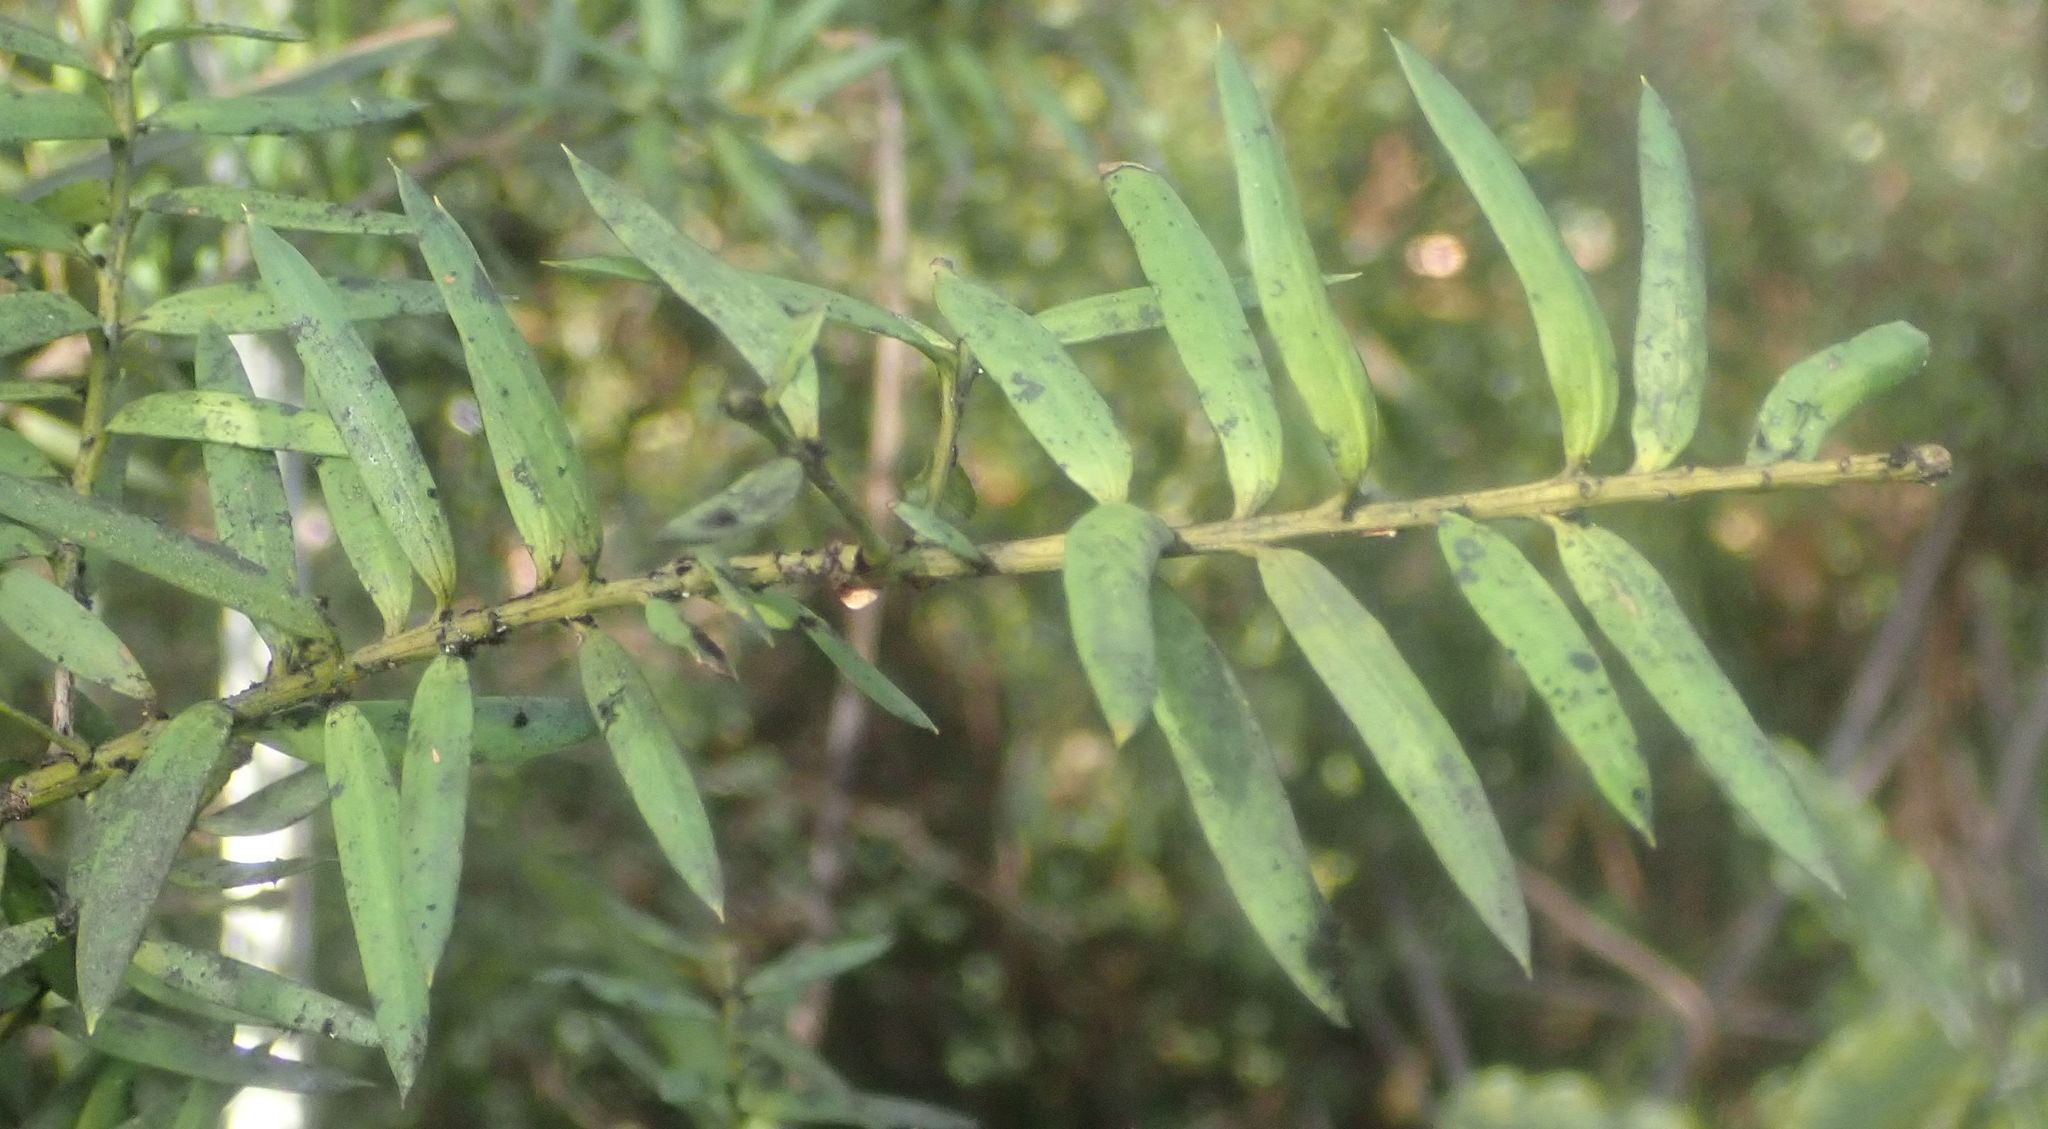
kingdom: Plantae
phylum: Tracheophyta
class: Pinopsida
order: Pinales
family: Podocarpaceae
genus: Podocarpus
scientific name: Podocarpus laetus
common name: Hall's totara
